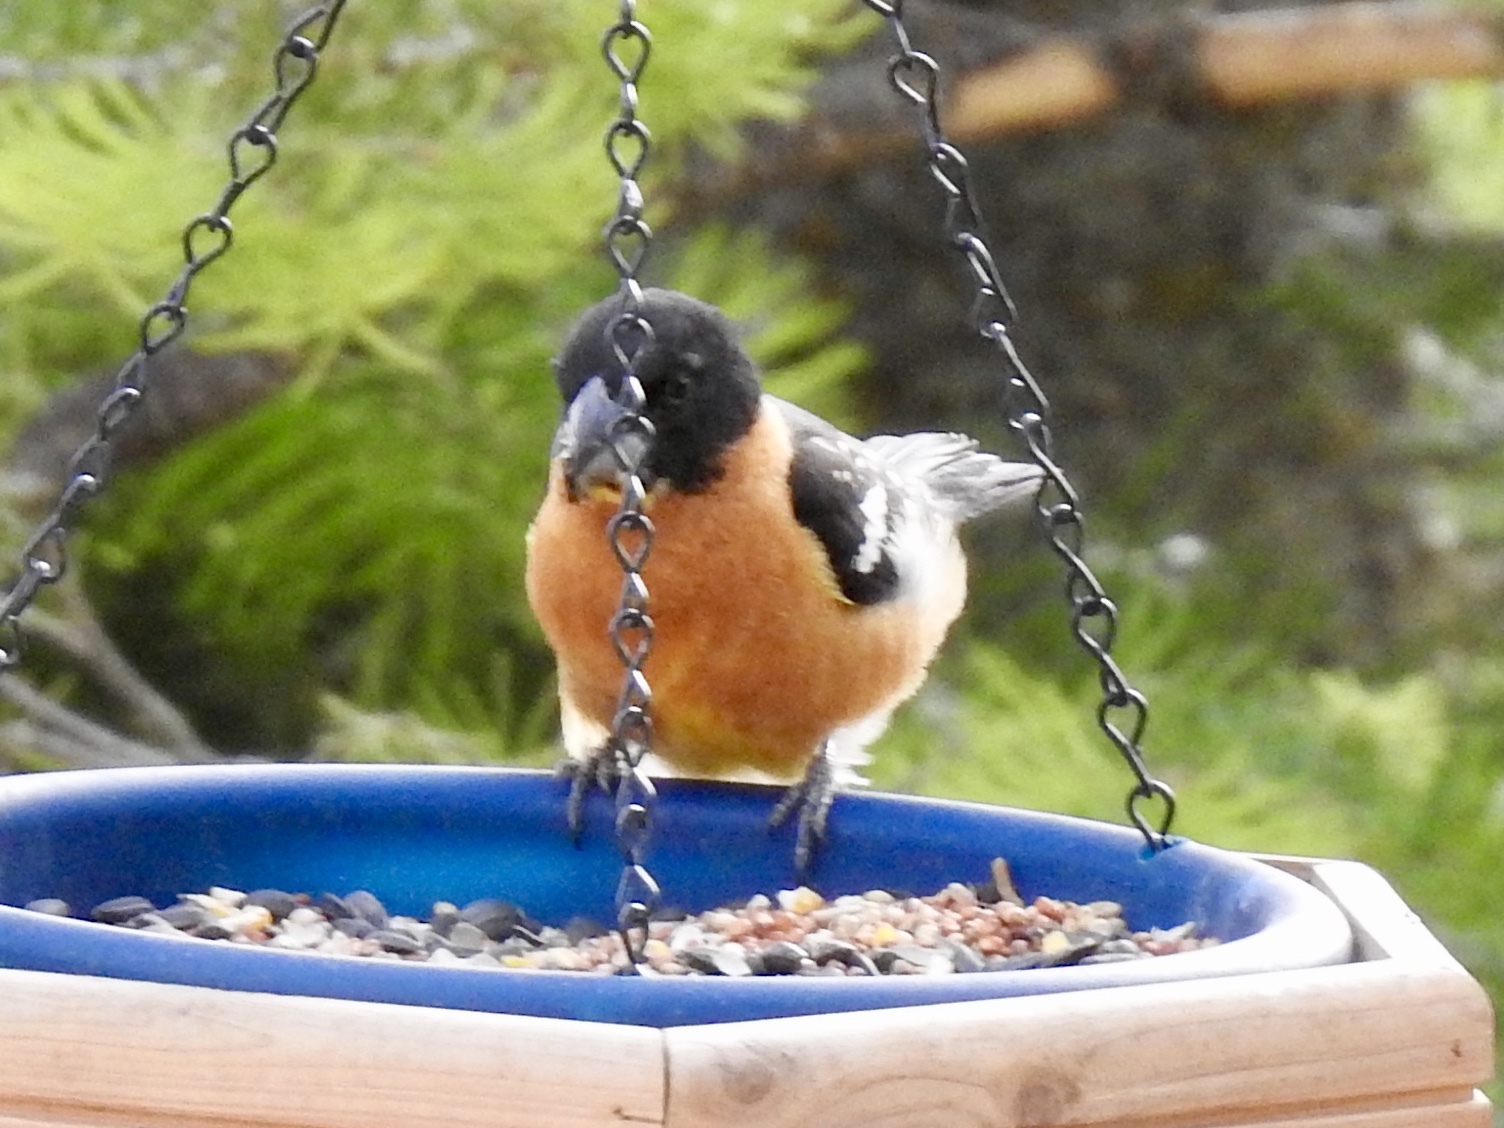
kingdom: Animalia
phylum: Chordata
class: Aves
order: Passeriformes
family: Cardinalidae
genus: Pheucticus
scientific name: Pheucticus melanocephalus
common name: Black-headed grosbeak
